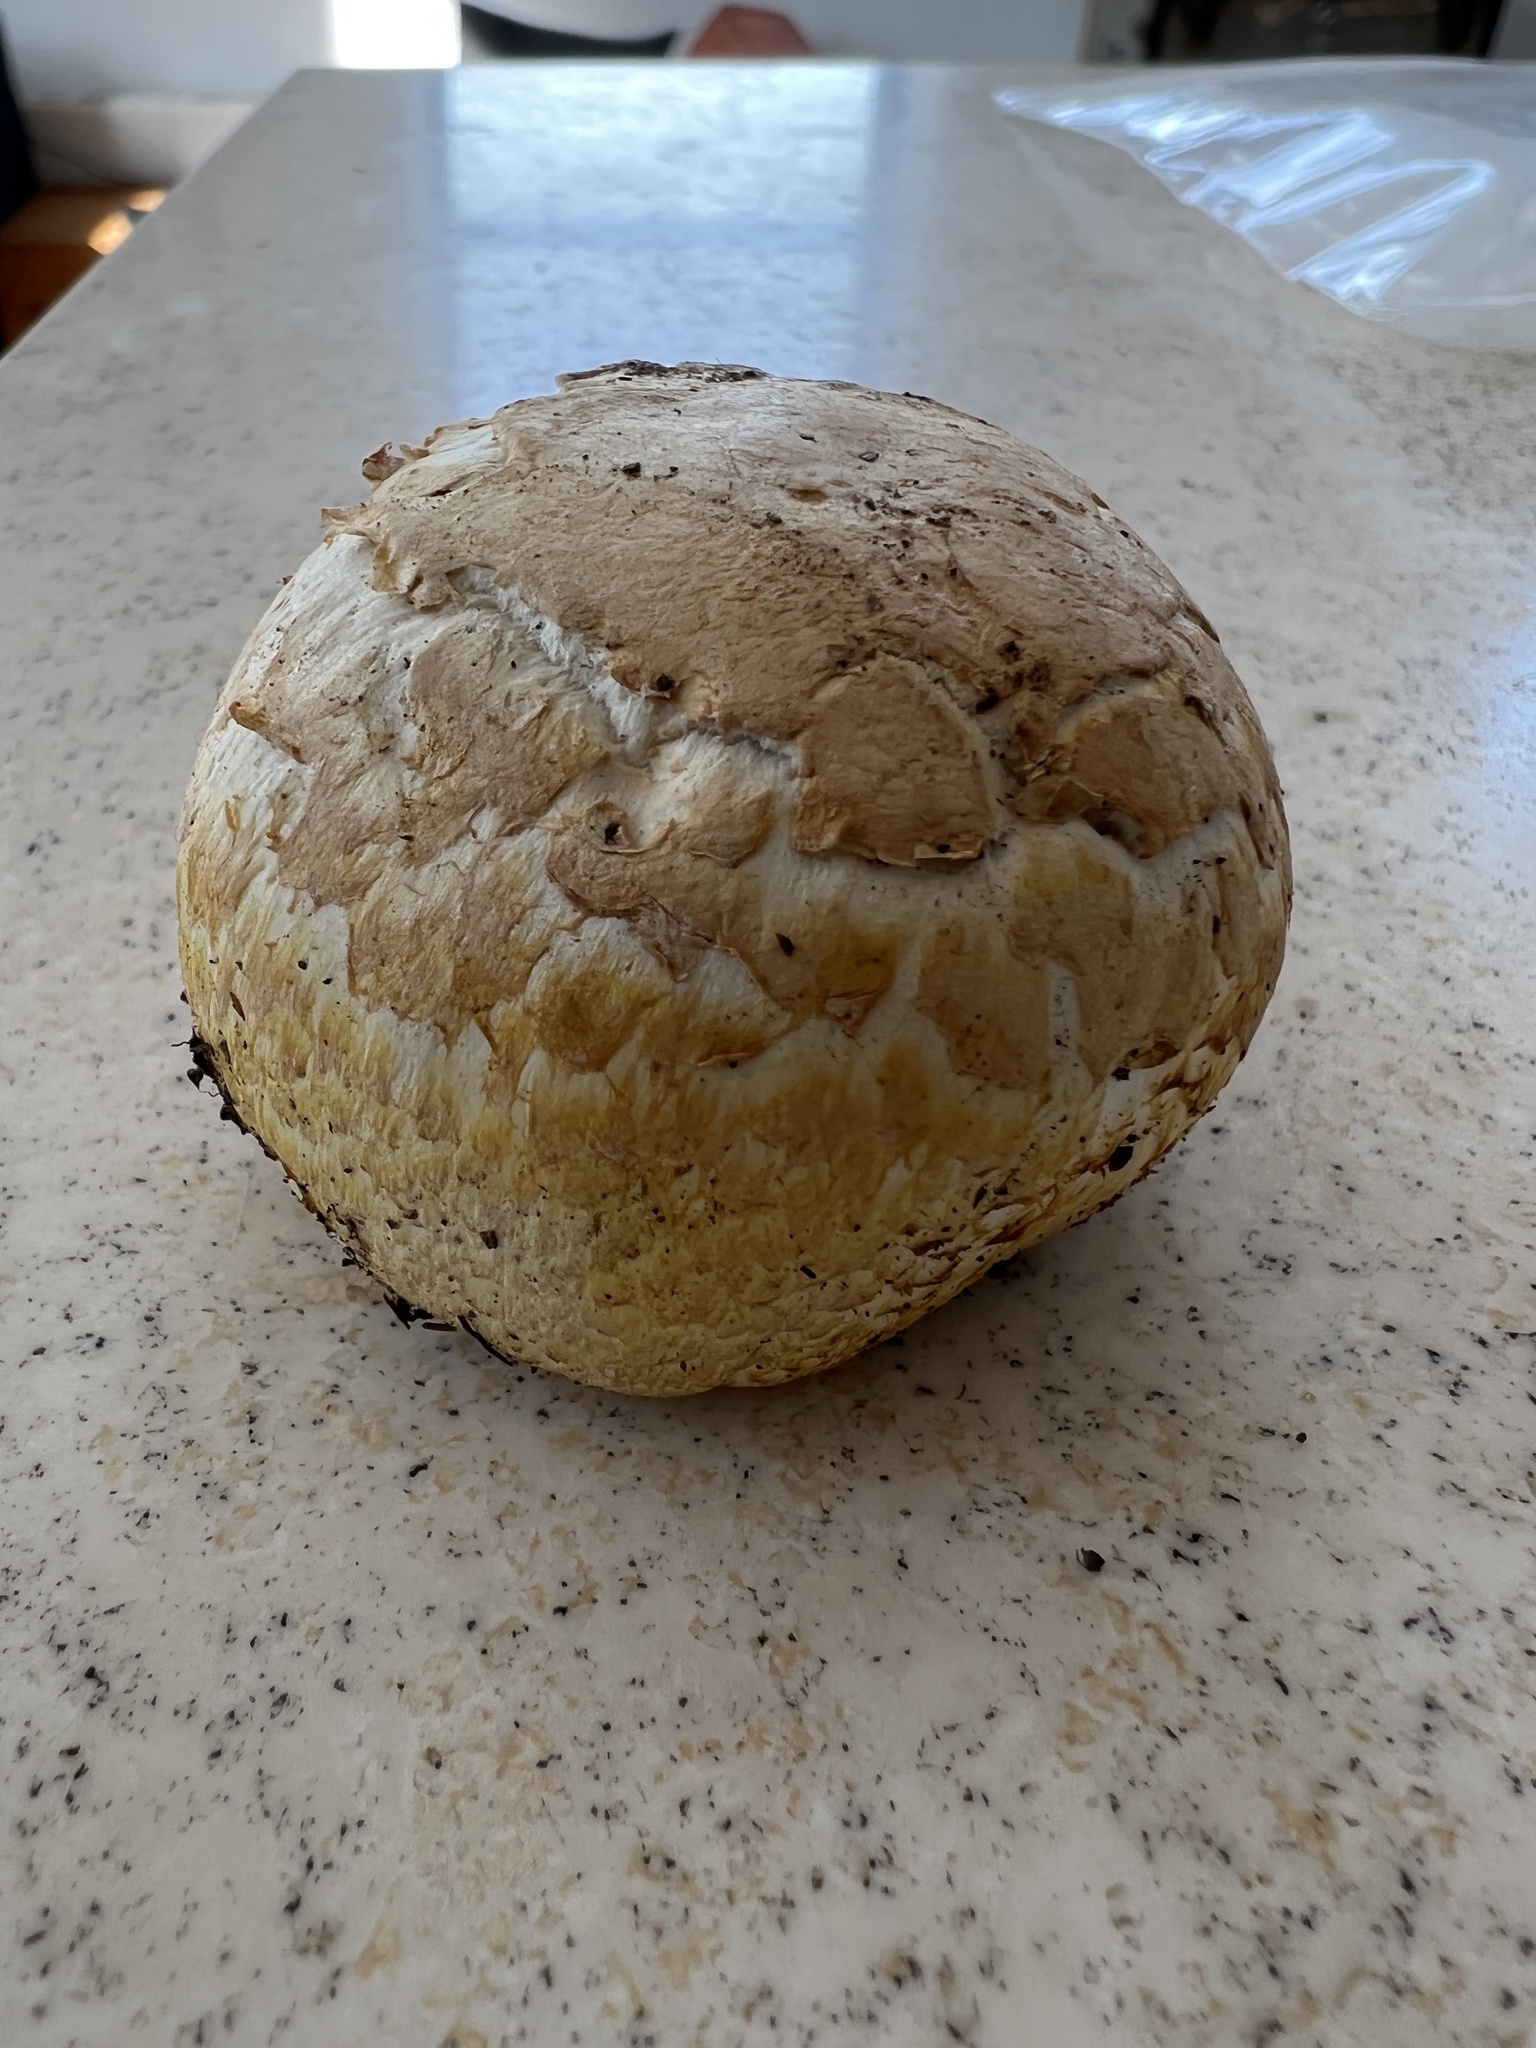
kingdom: Fungi
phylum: Basidiomycota
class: Agaricomycetes
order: Agaricales
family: Agaricaceae
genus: Agaricus
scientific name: Agaricus crocodilinus
